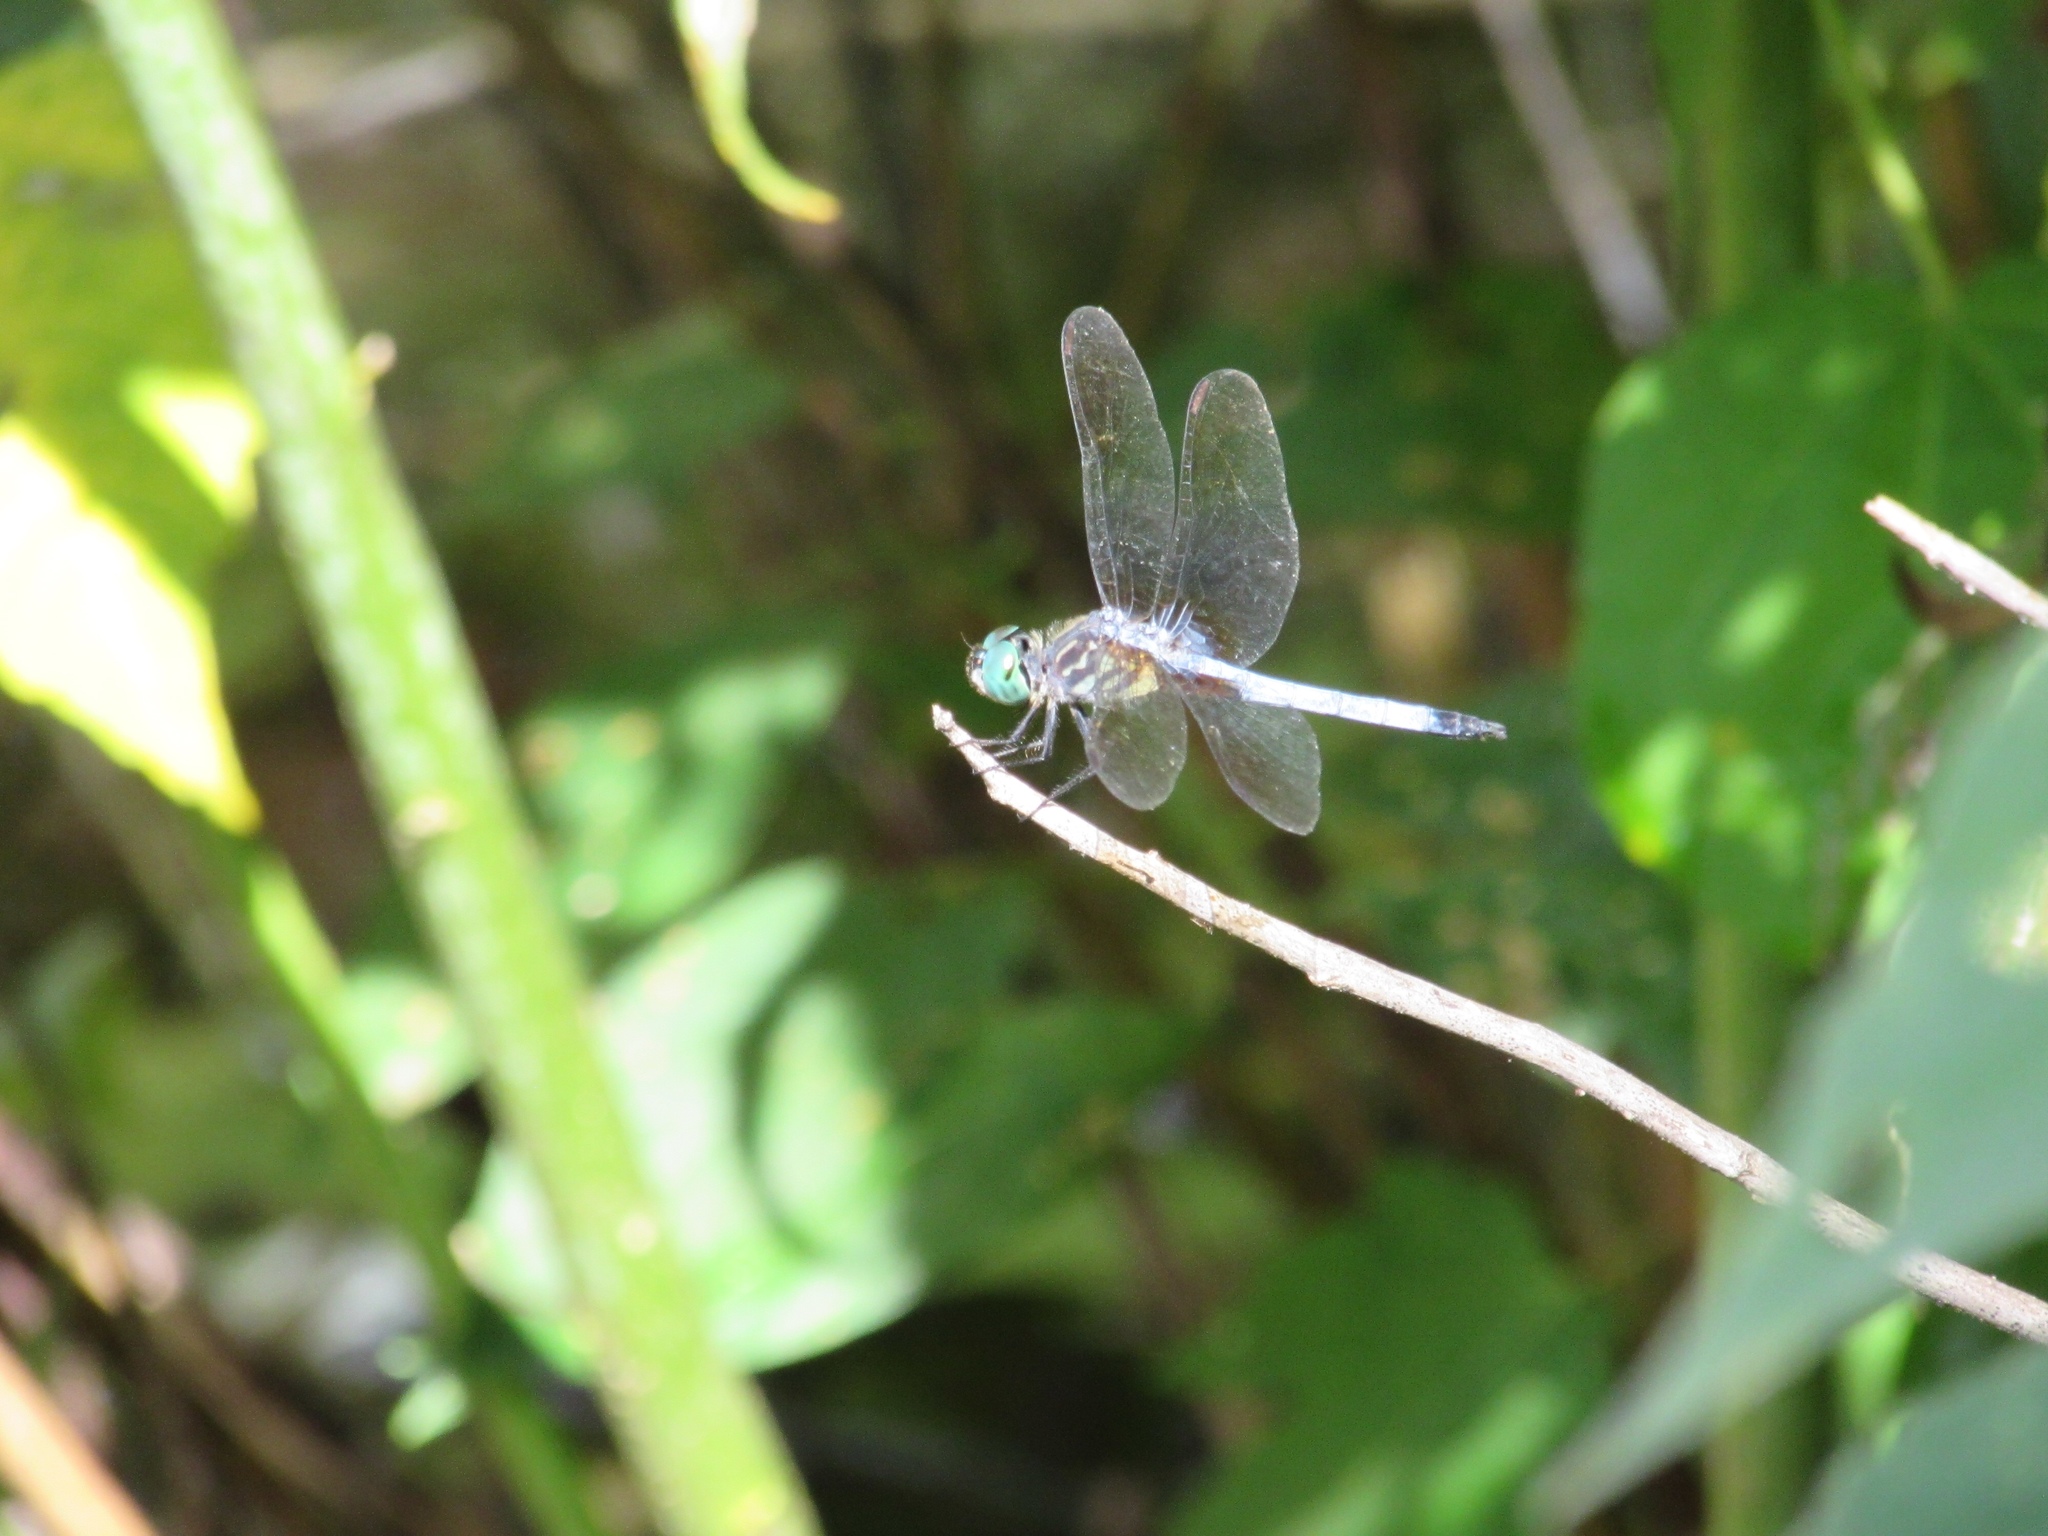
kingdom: Animalia
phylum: Arthropoda
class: Insecta
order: Odonata
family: Libellulidae
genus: Pachydiplax
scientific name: Pachydiplax longipennis
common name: Blue dasher
